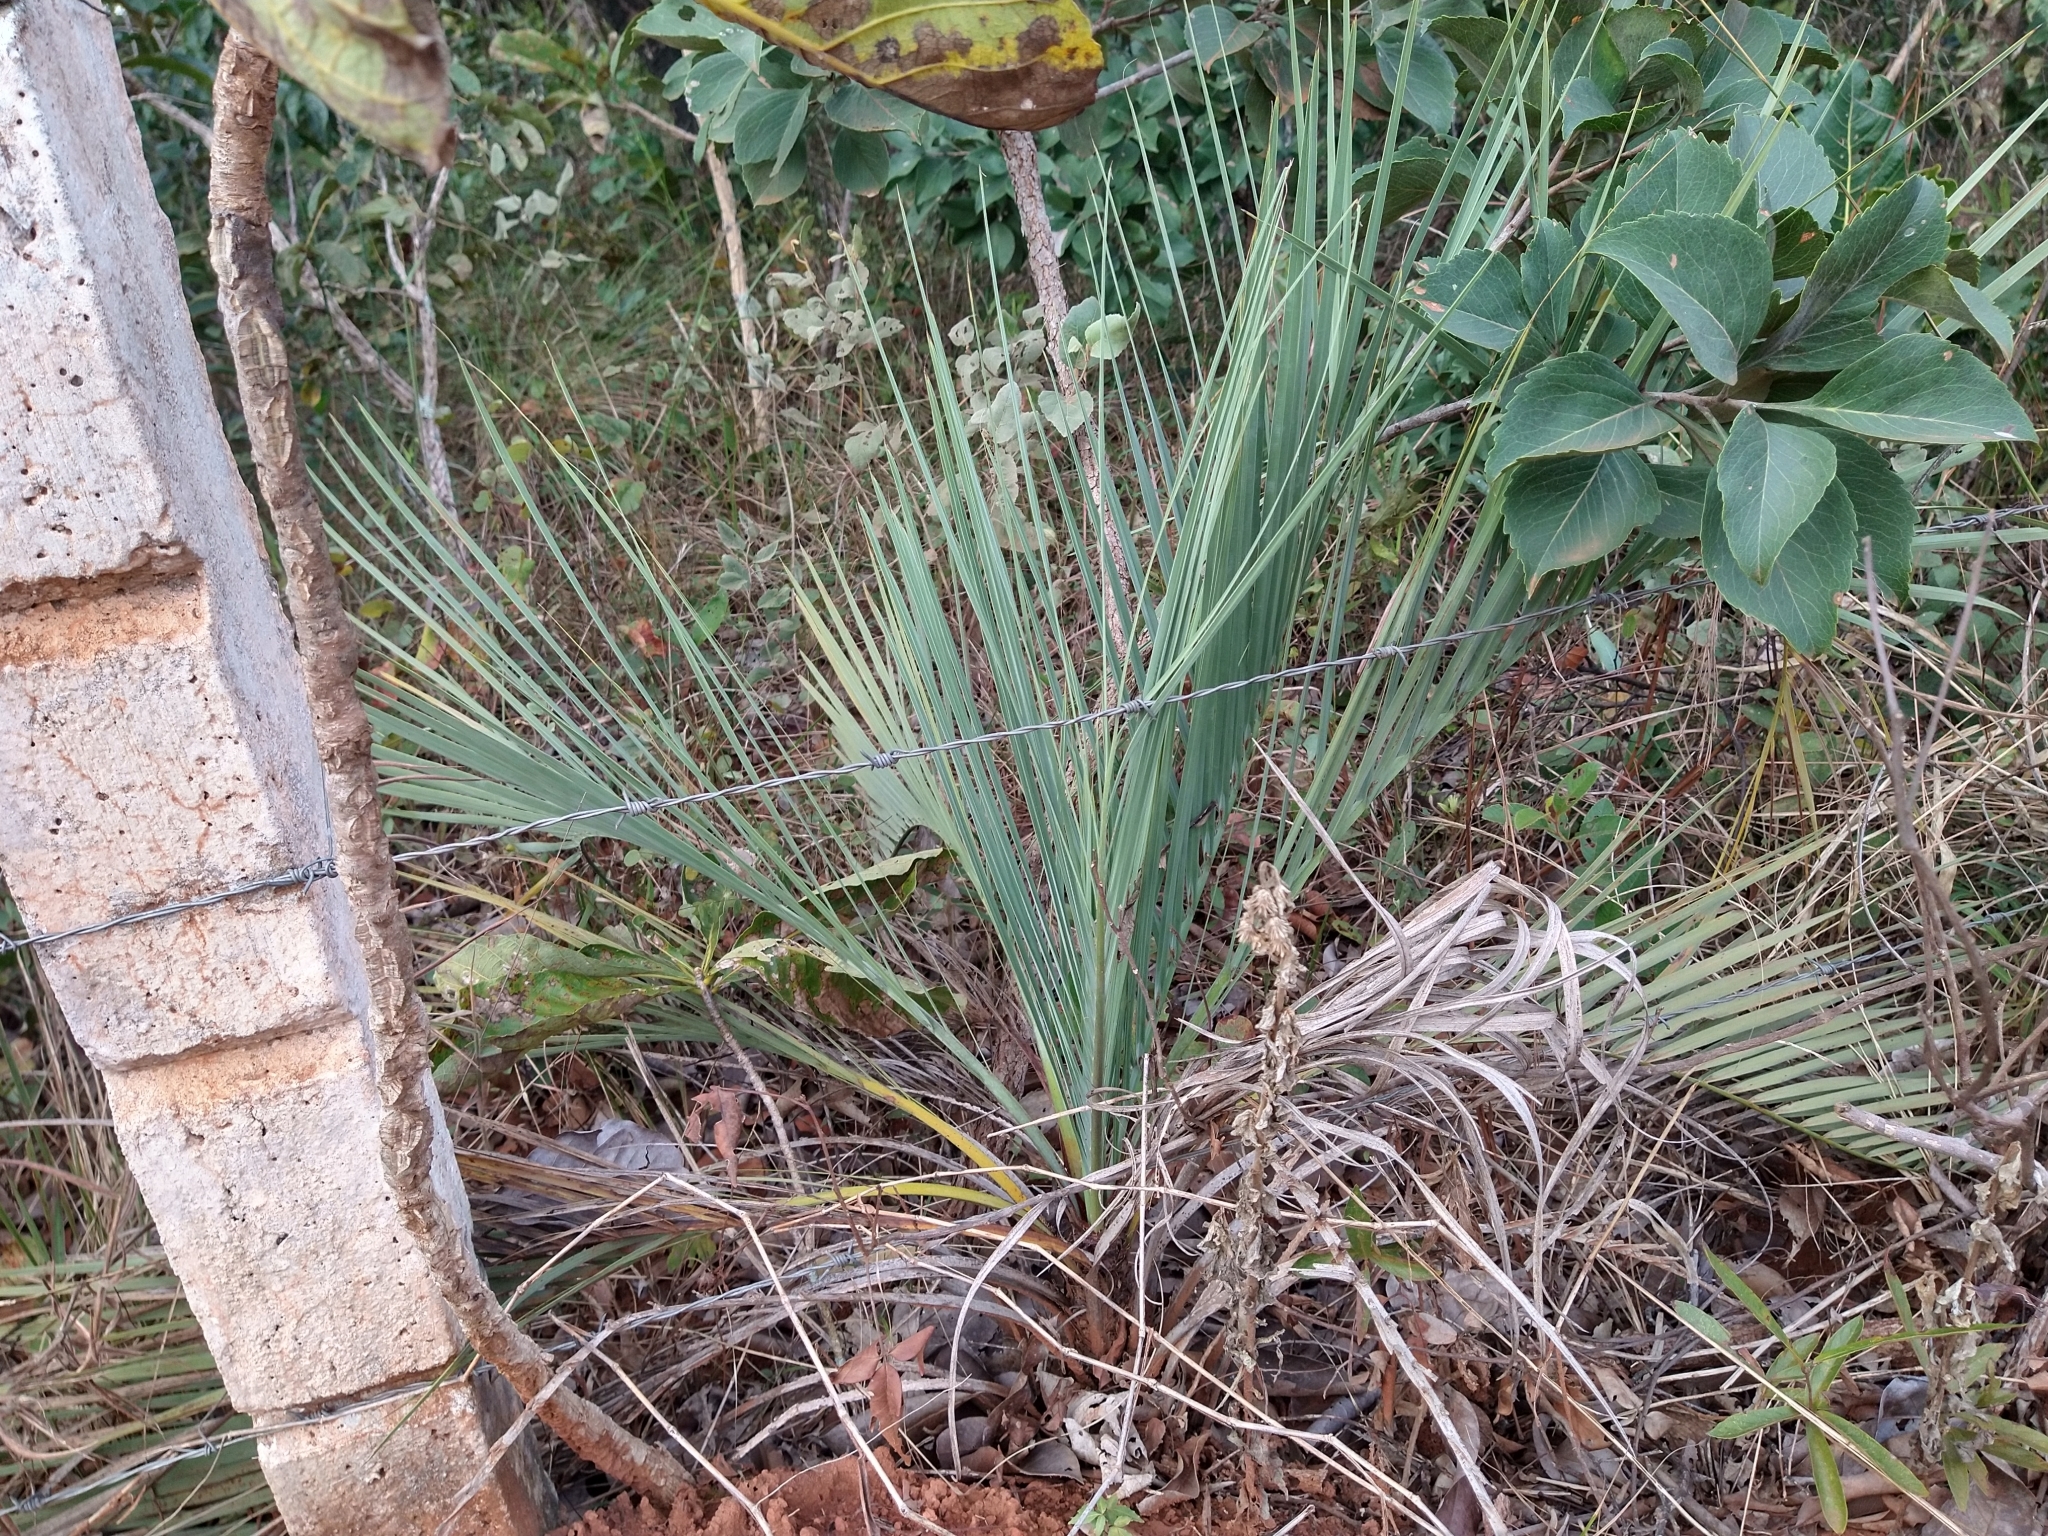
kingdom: Plantae
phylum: Tracheophyta
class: Liliopsida
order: Arecales
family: Arecaceae
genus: Butia
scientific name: Butia archeri
